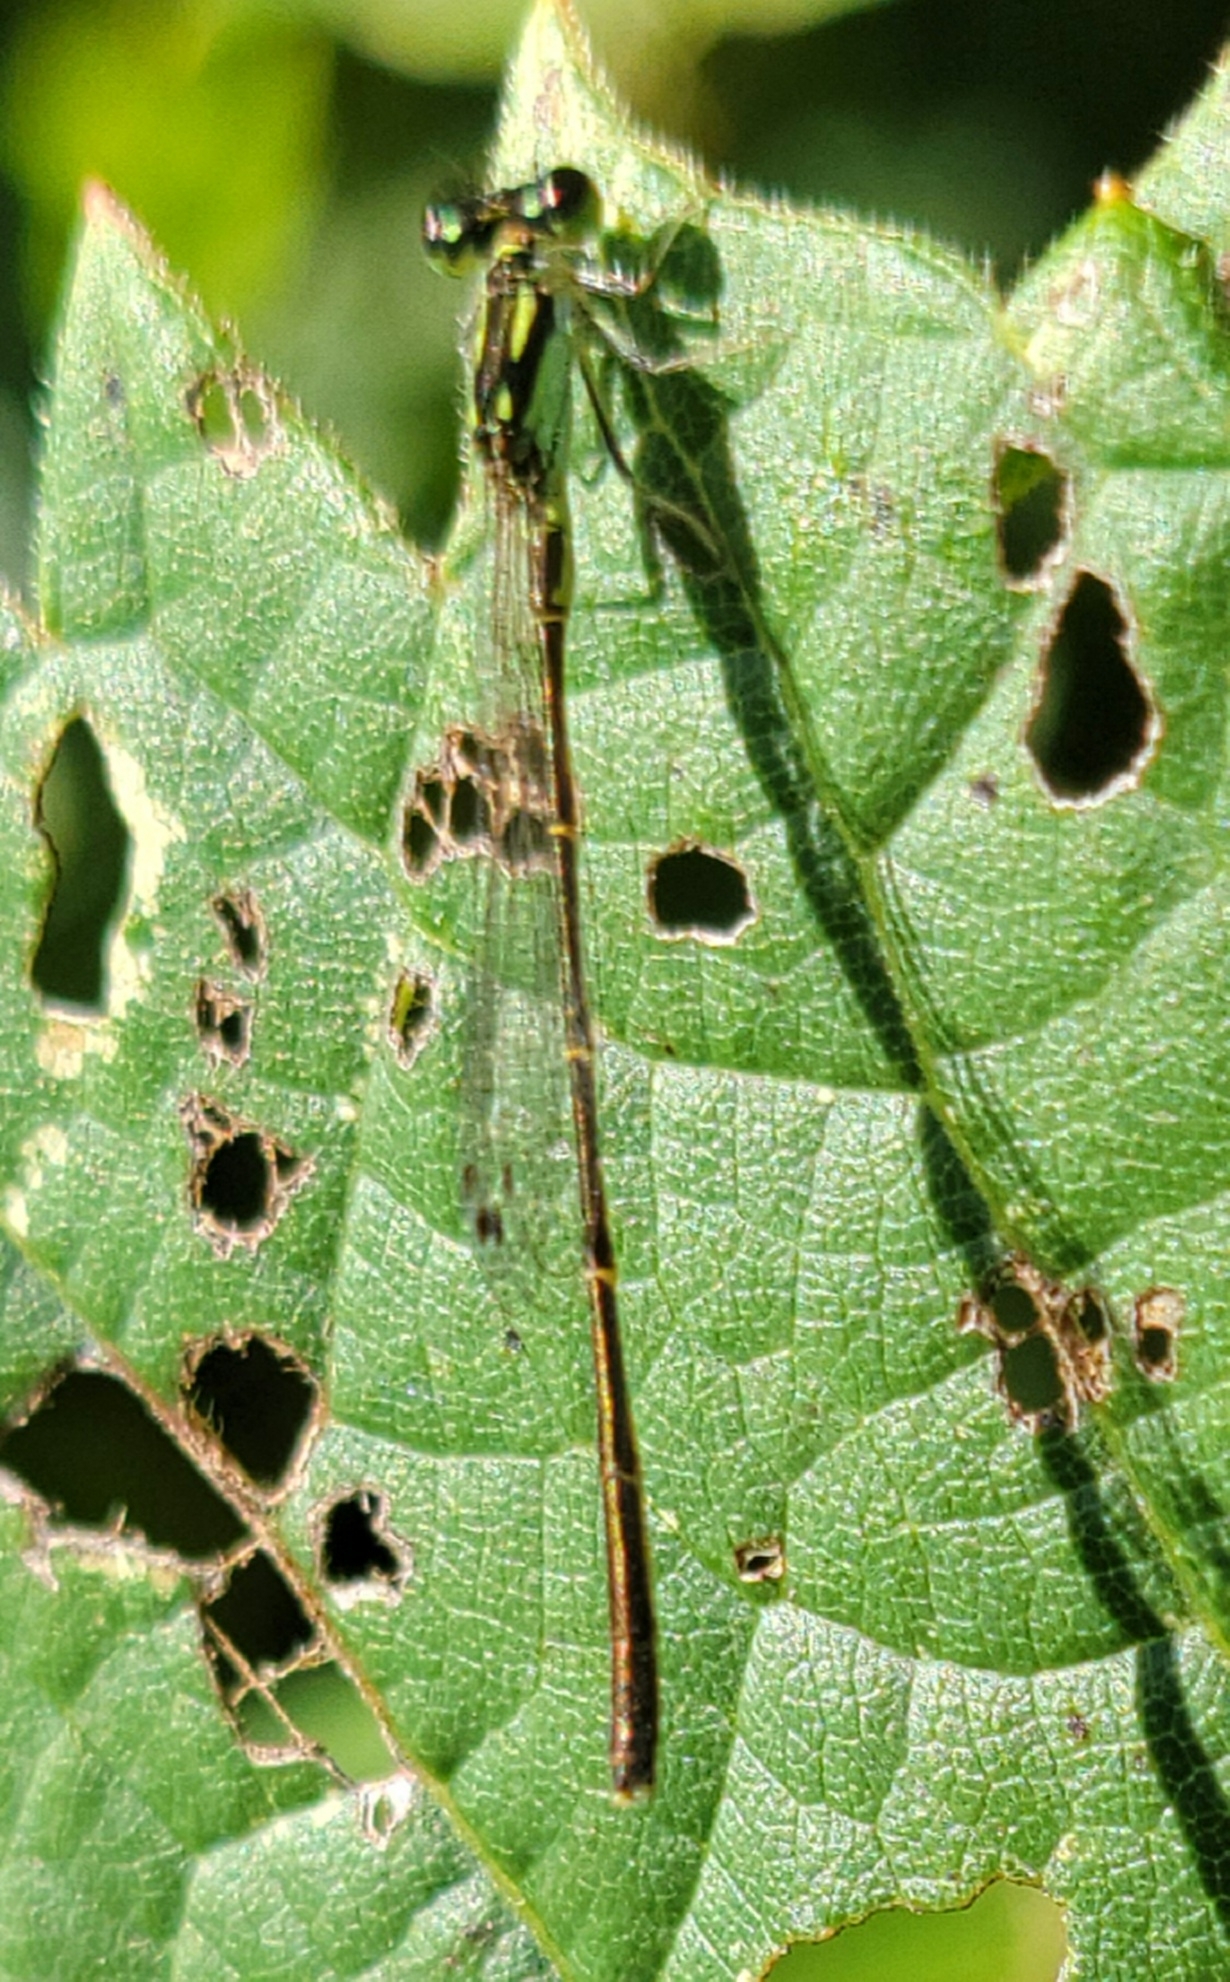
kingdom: Animalia
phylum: Arthropoda
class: Insecta
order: Odonata
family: Coenagrionidae
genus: Ischnura
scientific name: Ischnura posita
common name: Fragile forktail
